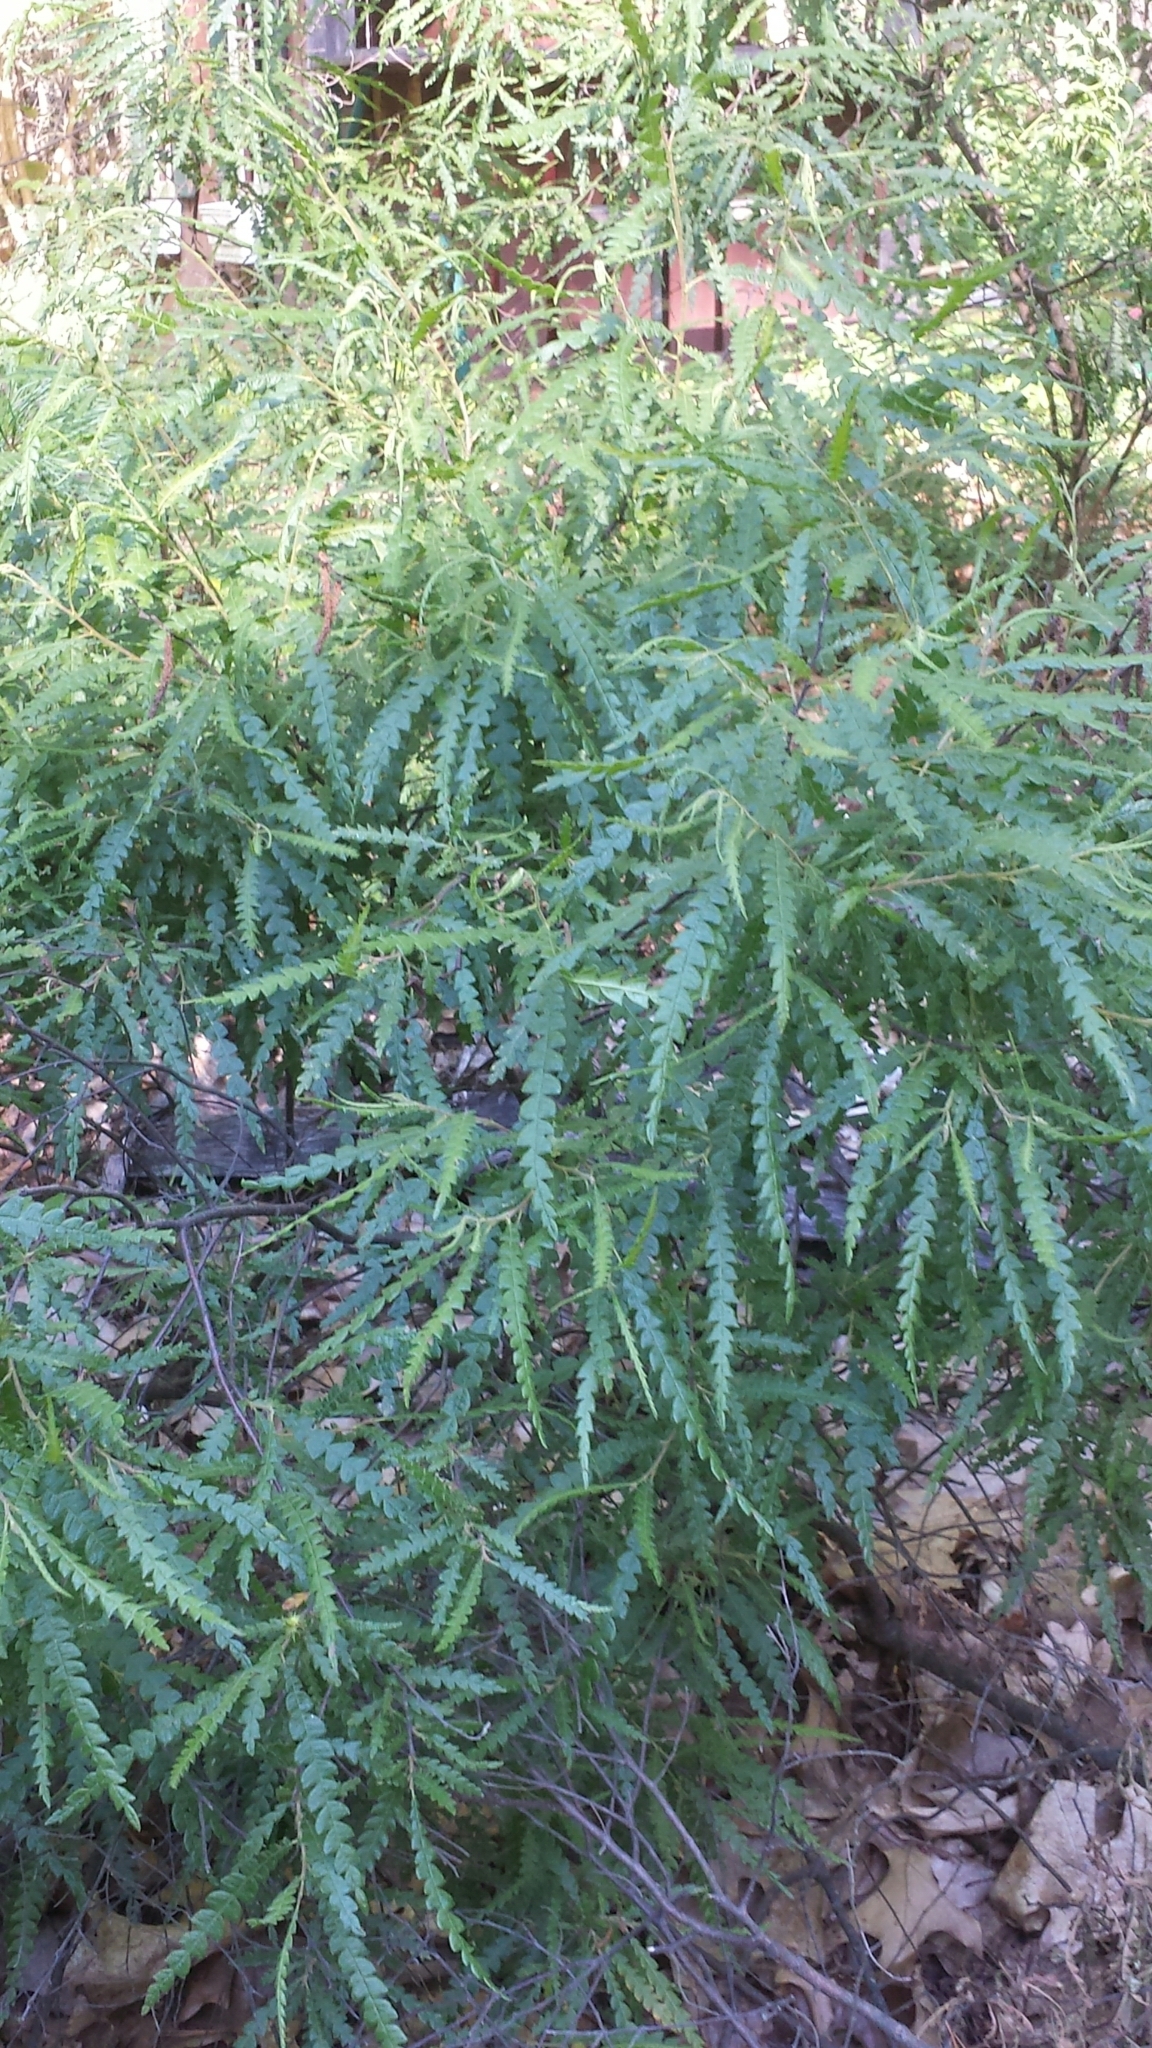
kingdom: Plantae
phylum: Tracheophyta
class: Magnoliopsida
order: Fagales
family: Myricaceae
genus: Comptonia
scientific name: Comptonia peregrina
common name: Sweet-fern
